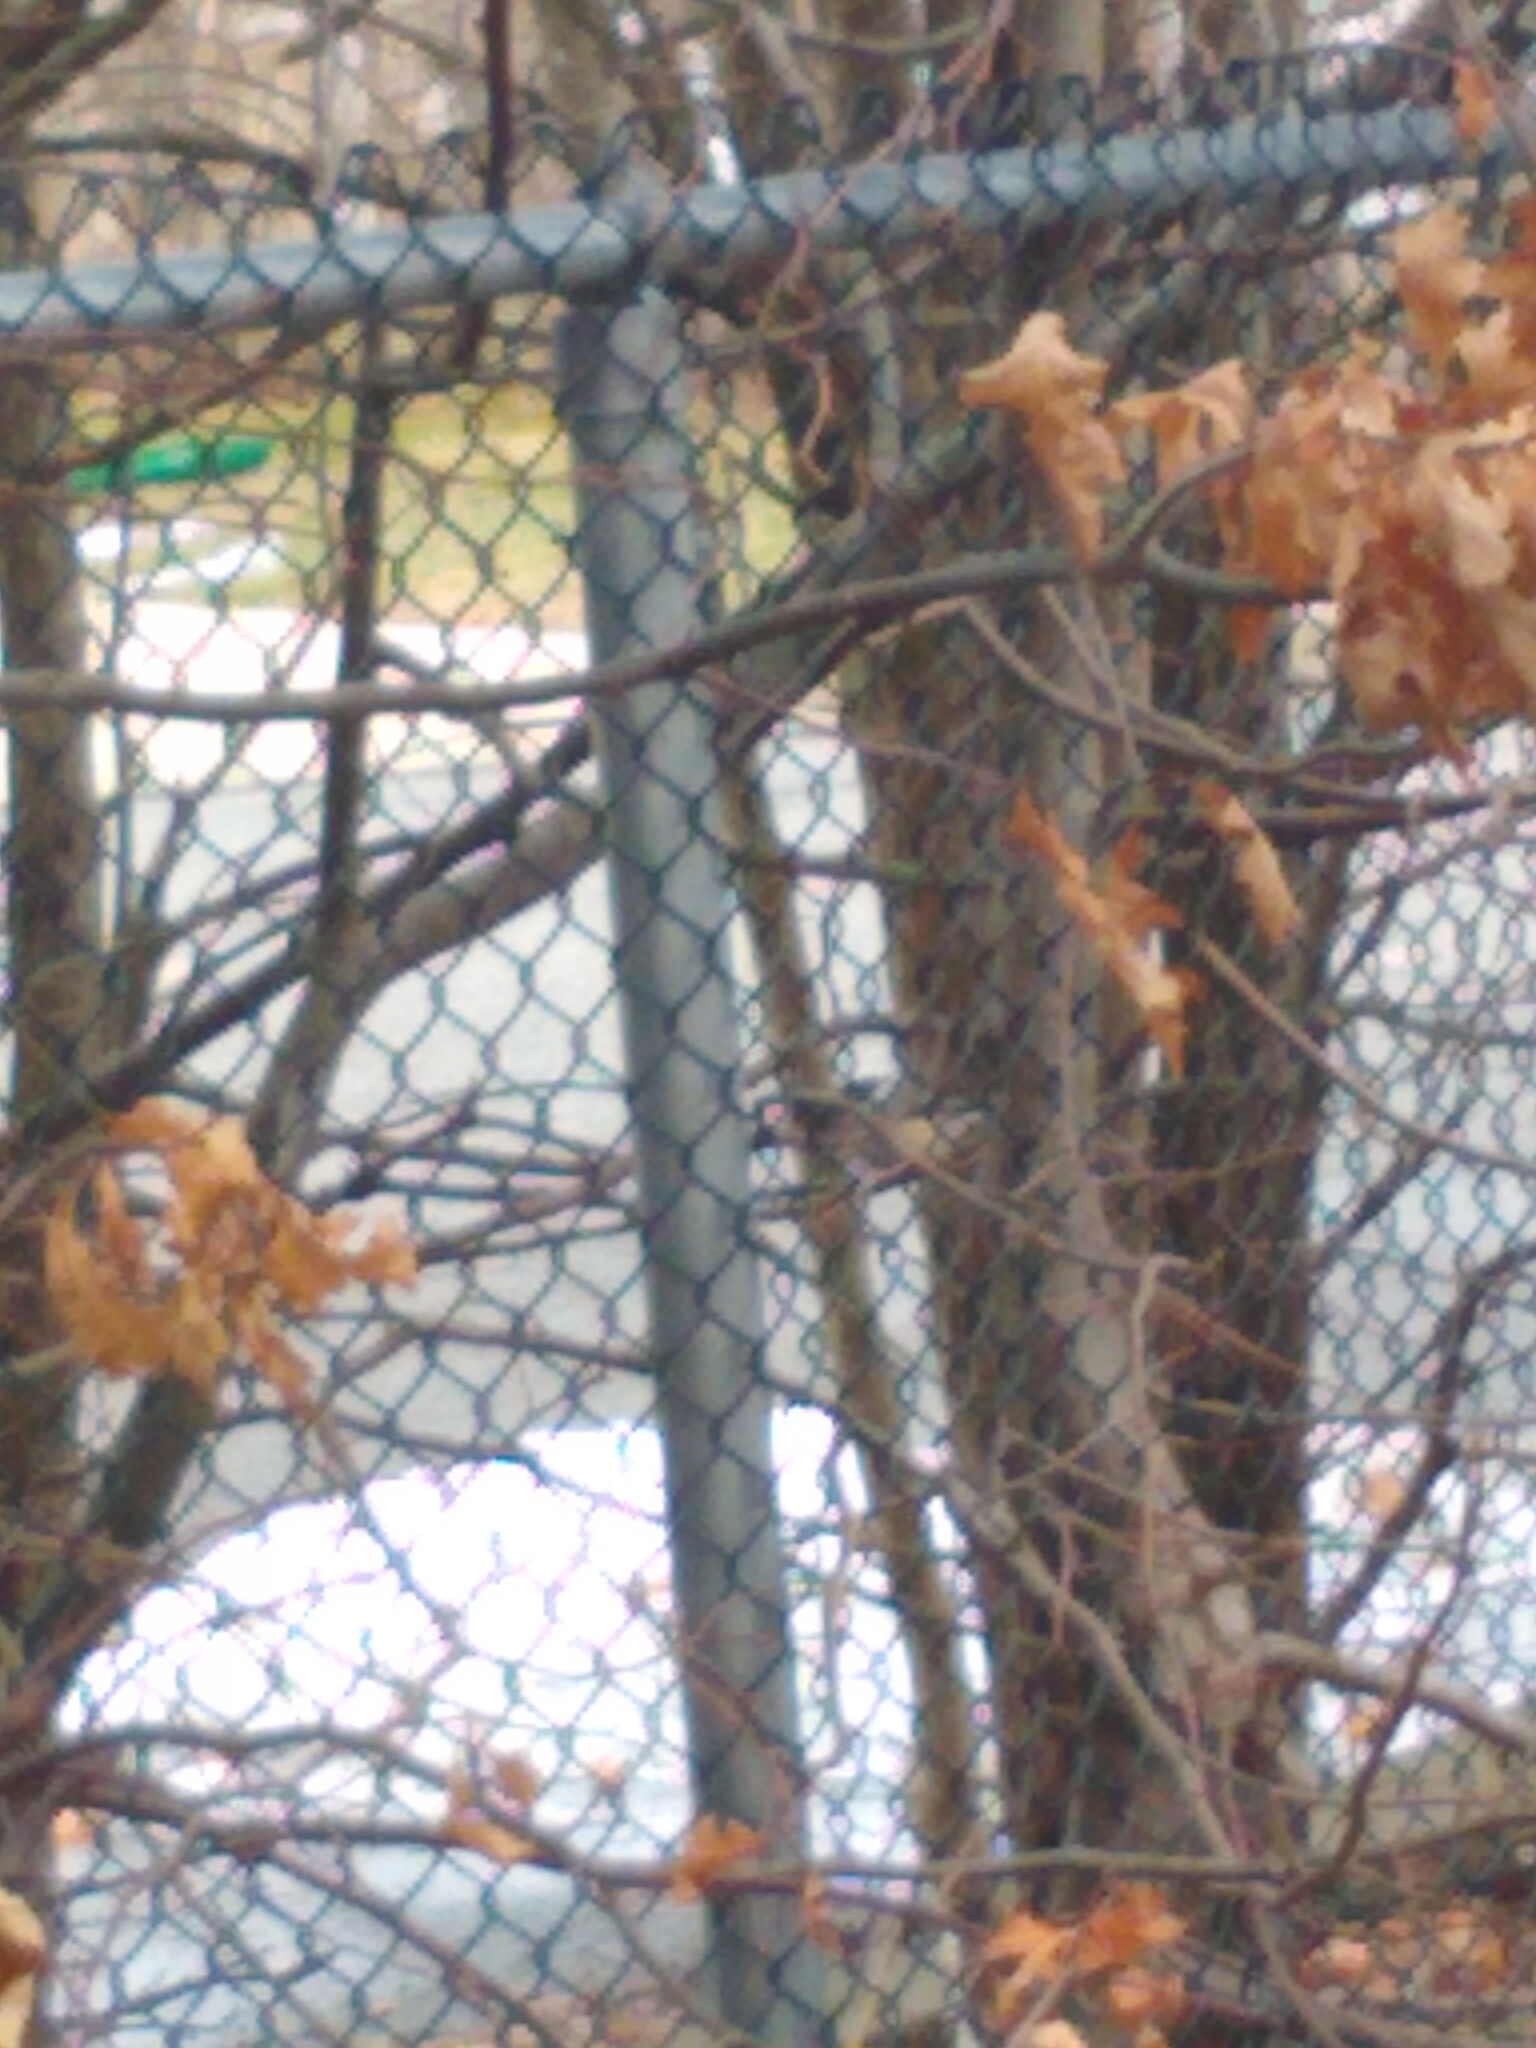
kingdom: Animalia
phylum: Chordata
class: Aves
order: Passeriformes
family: Paridae
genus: Poecile
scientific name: Poecile atricapillus
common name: Black-capped chickadee
